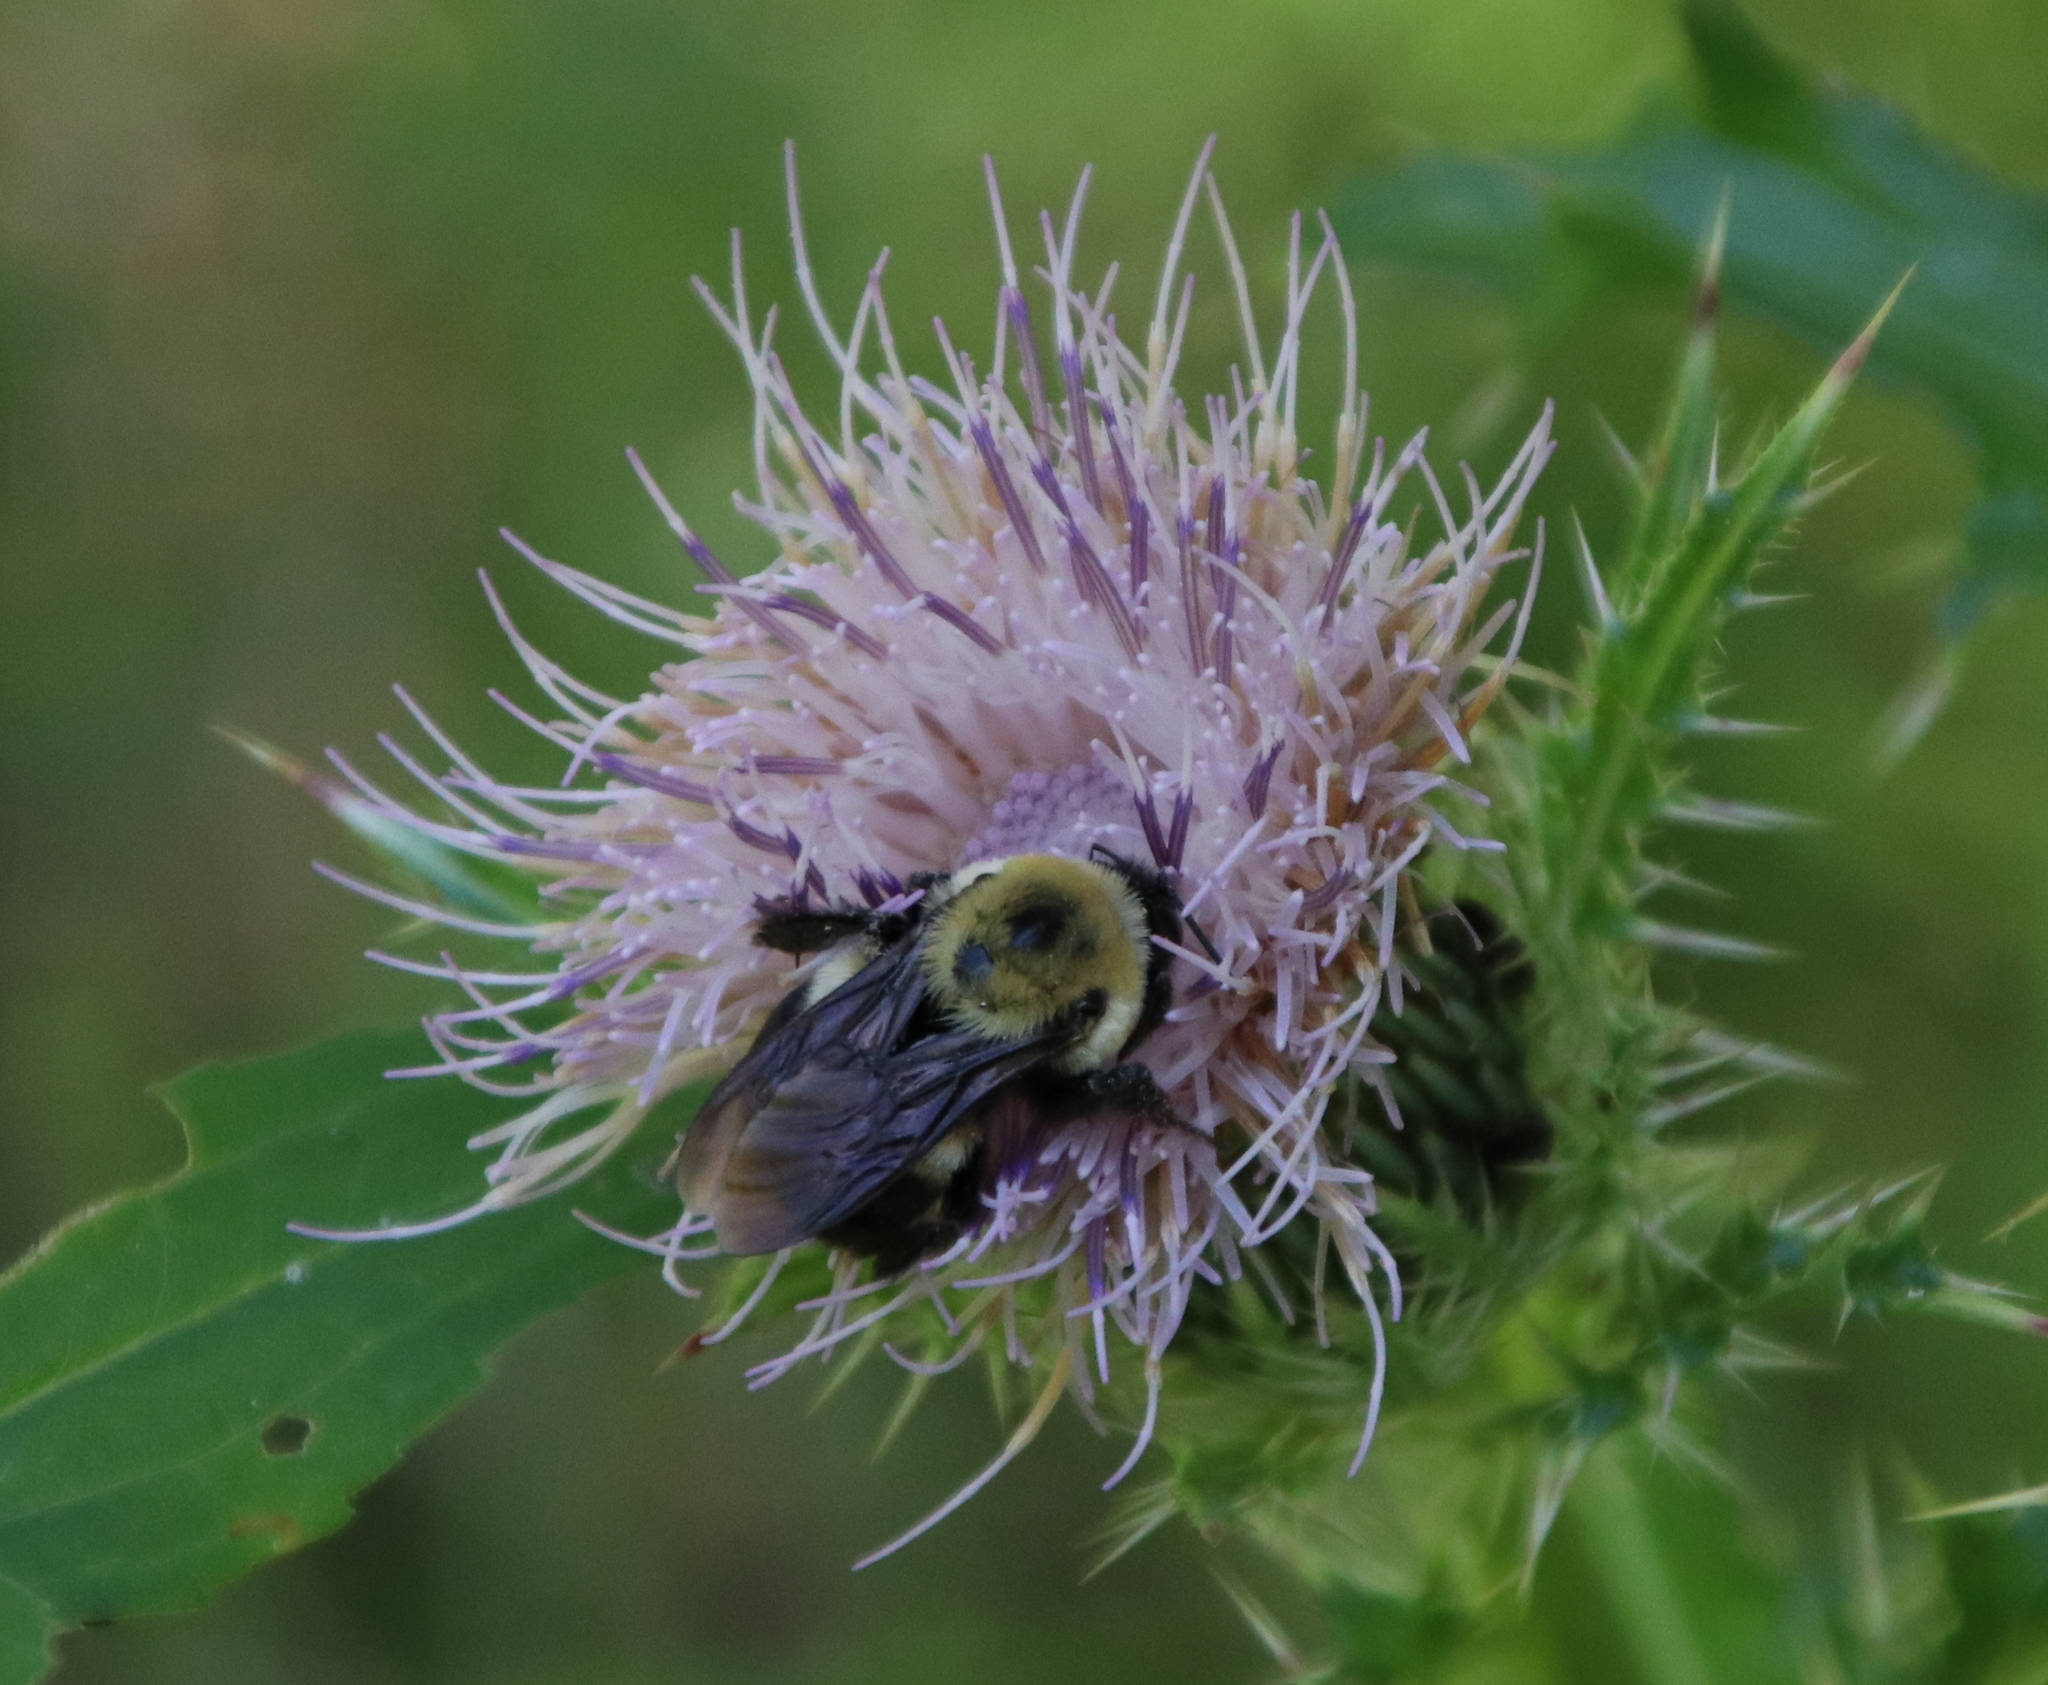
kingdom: Animalia
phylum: Arthropoda
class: Insecta
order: Hymenoptera
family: Apidae
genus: Bombus
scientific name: Bombus griseocollis
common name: Brown-belted bumble bee
